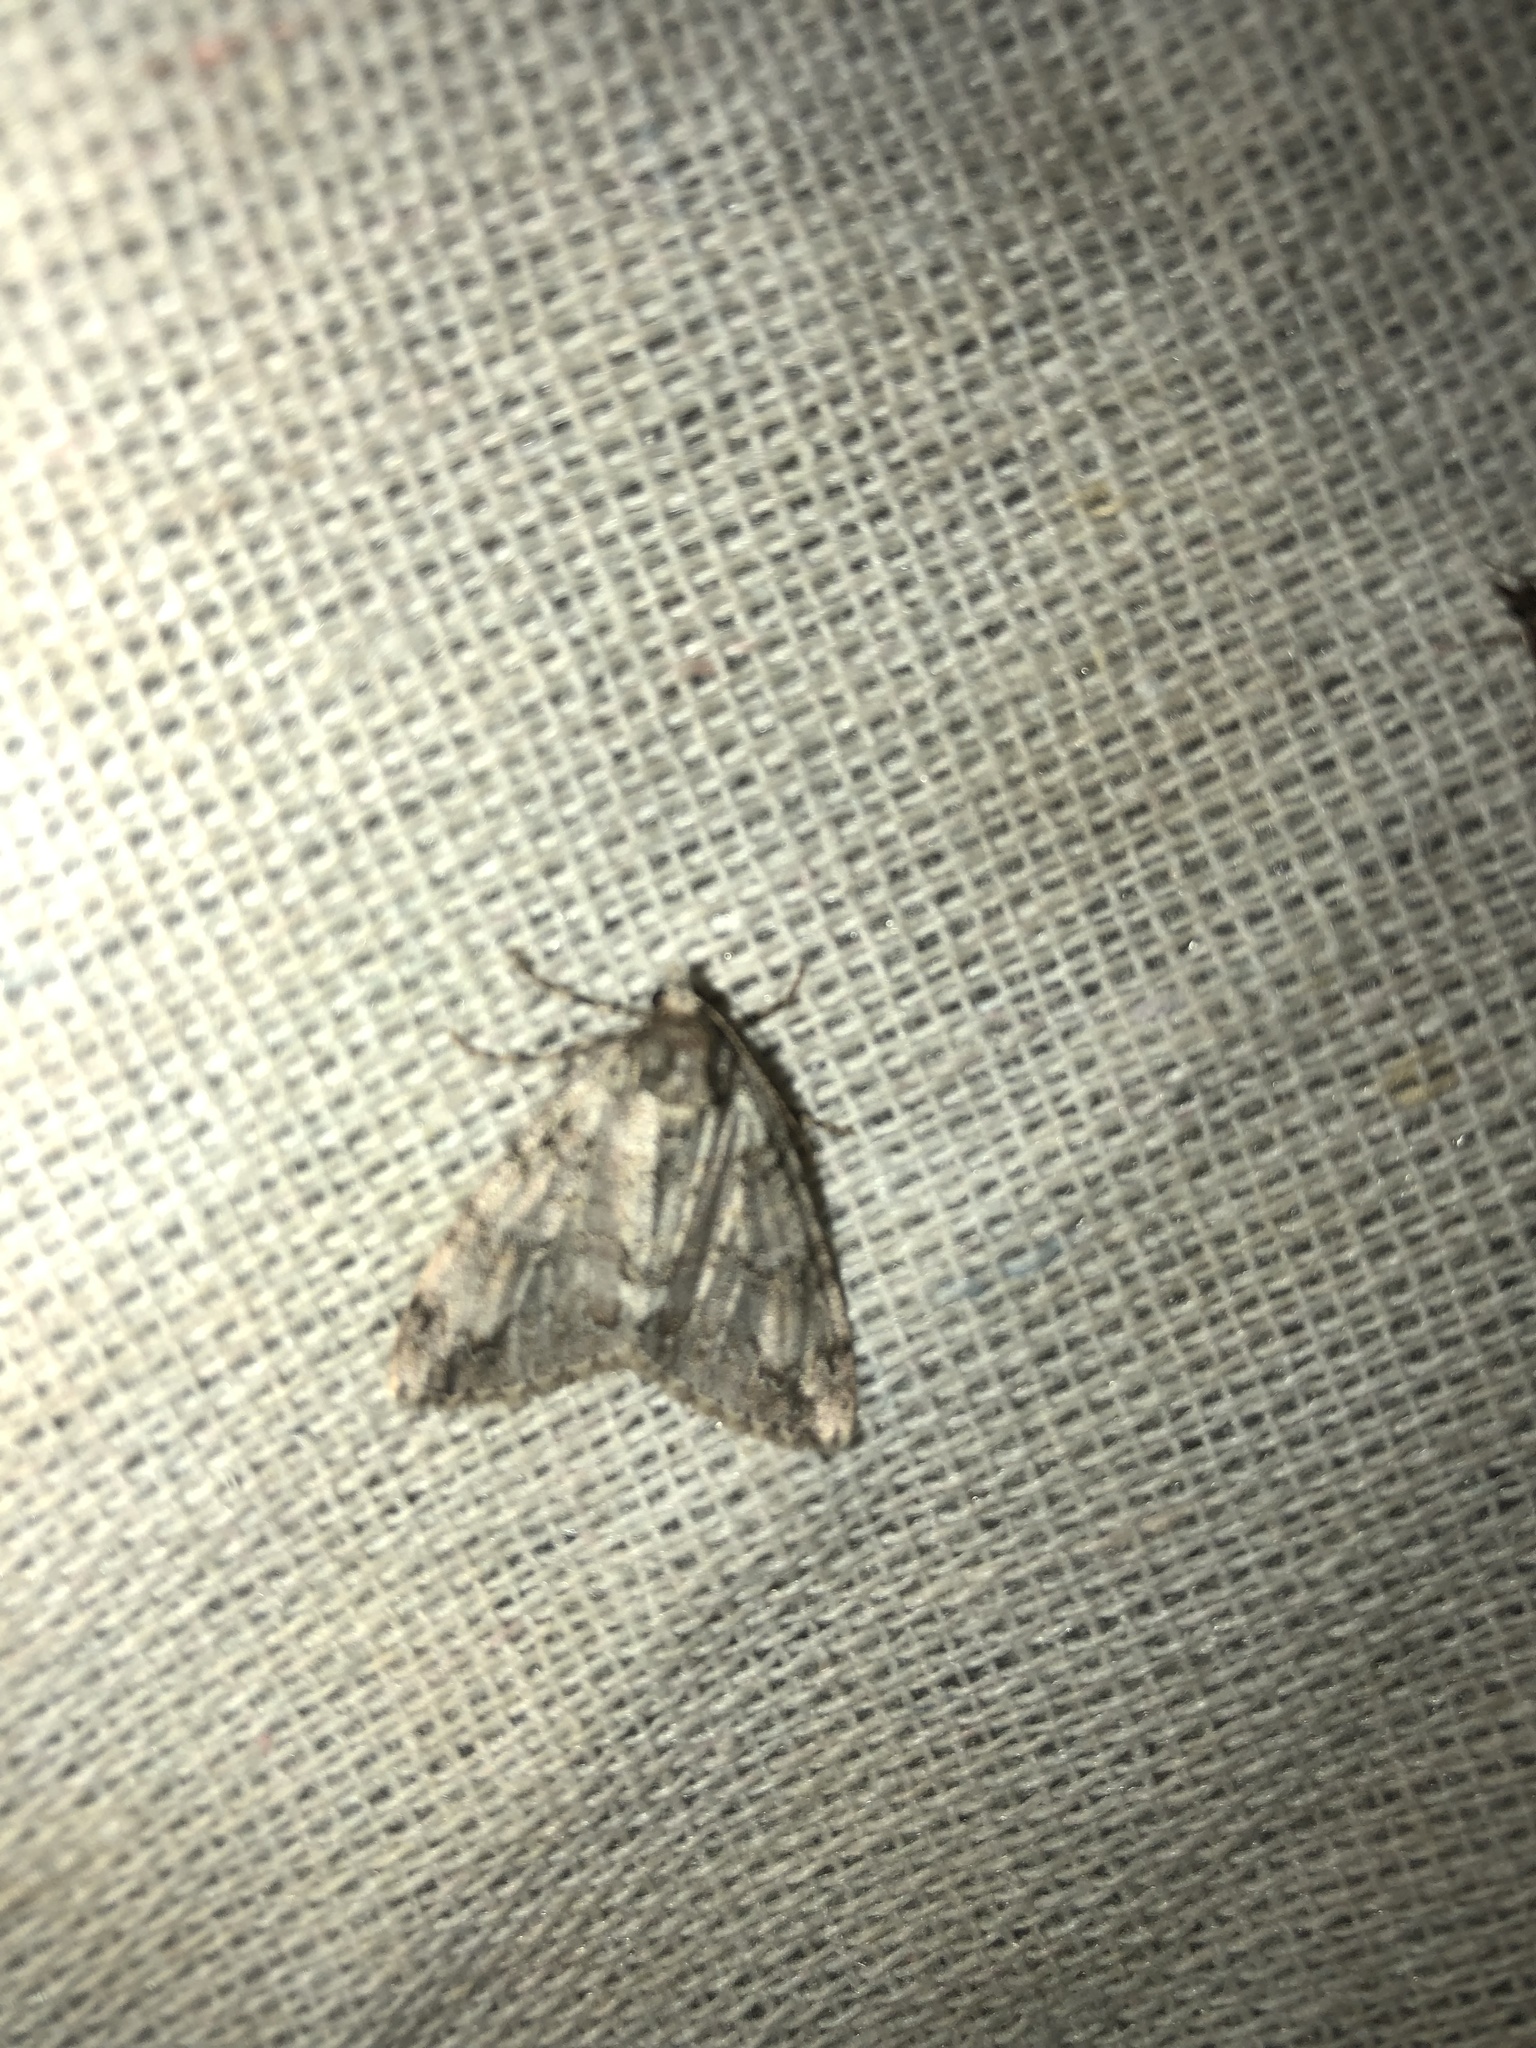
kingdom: Animalia
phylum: Arthropoda
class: Insecta
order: Lepidoptera
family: Geometridae
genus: Pseudocoremia
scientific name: Pseudocoremia suavis
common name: Common forest looper
